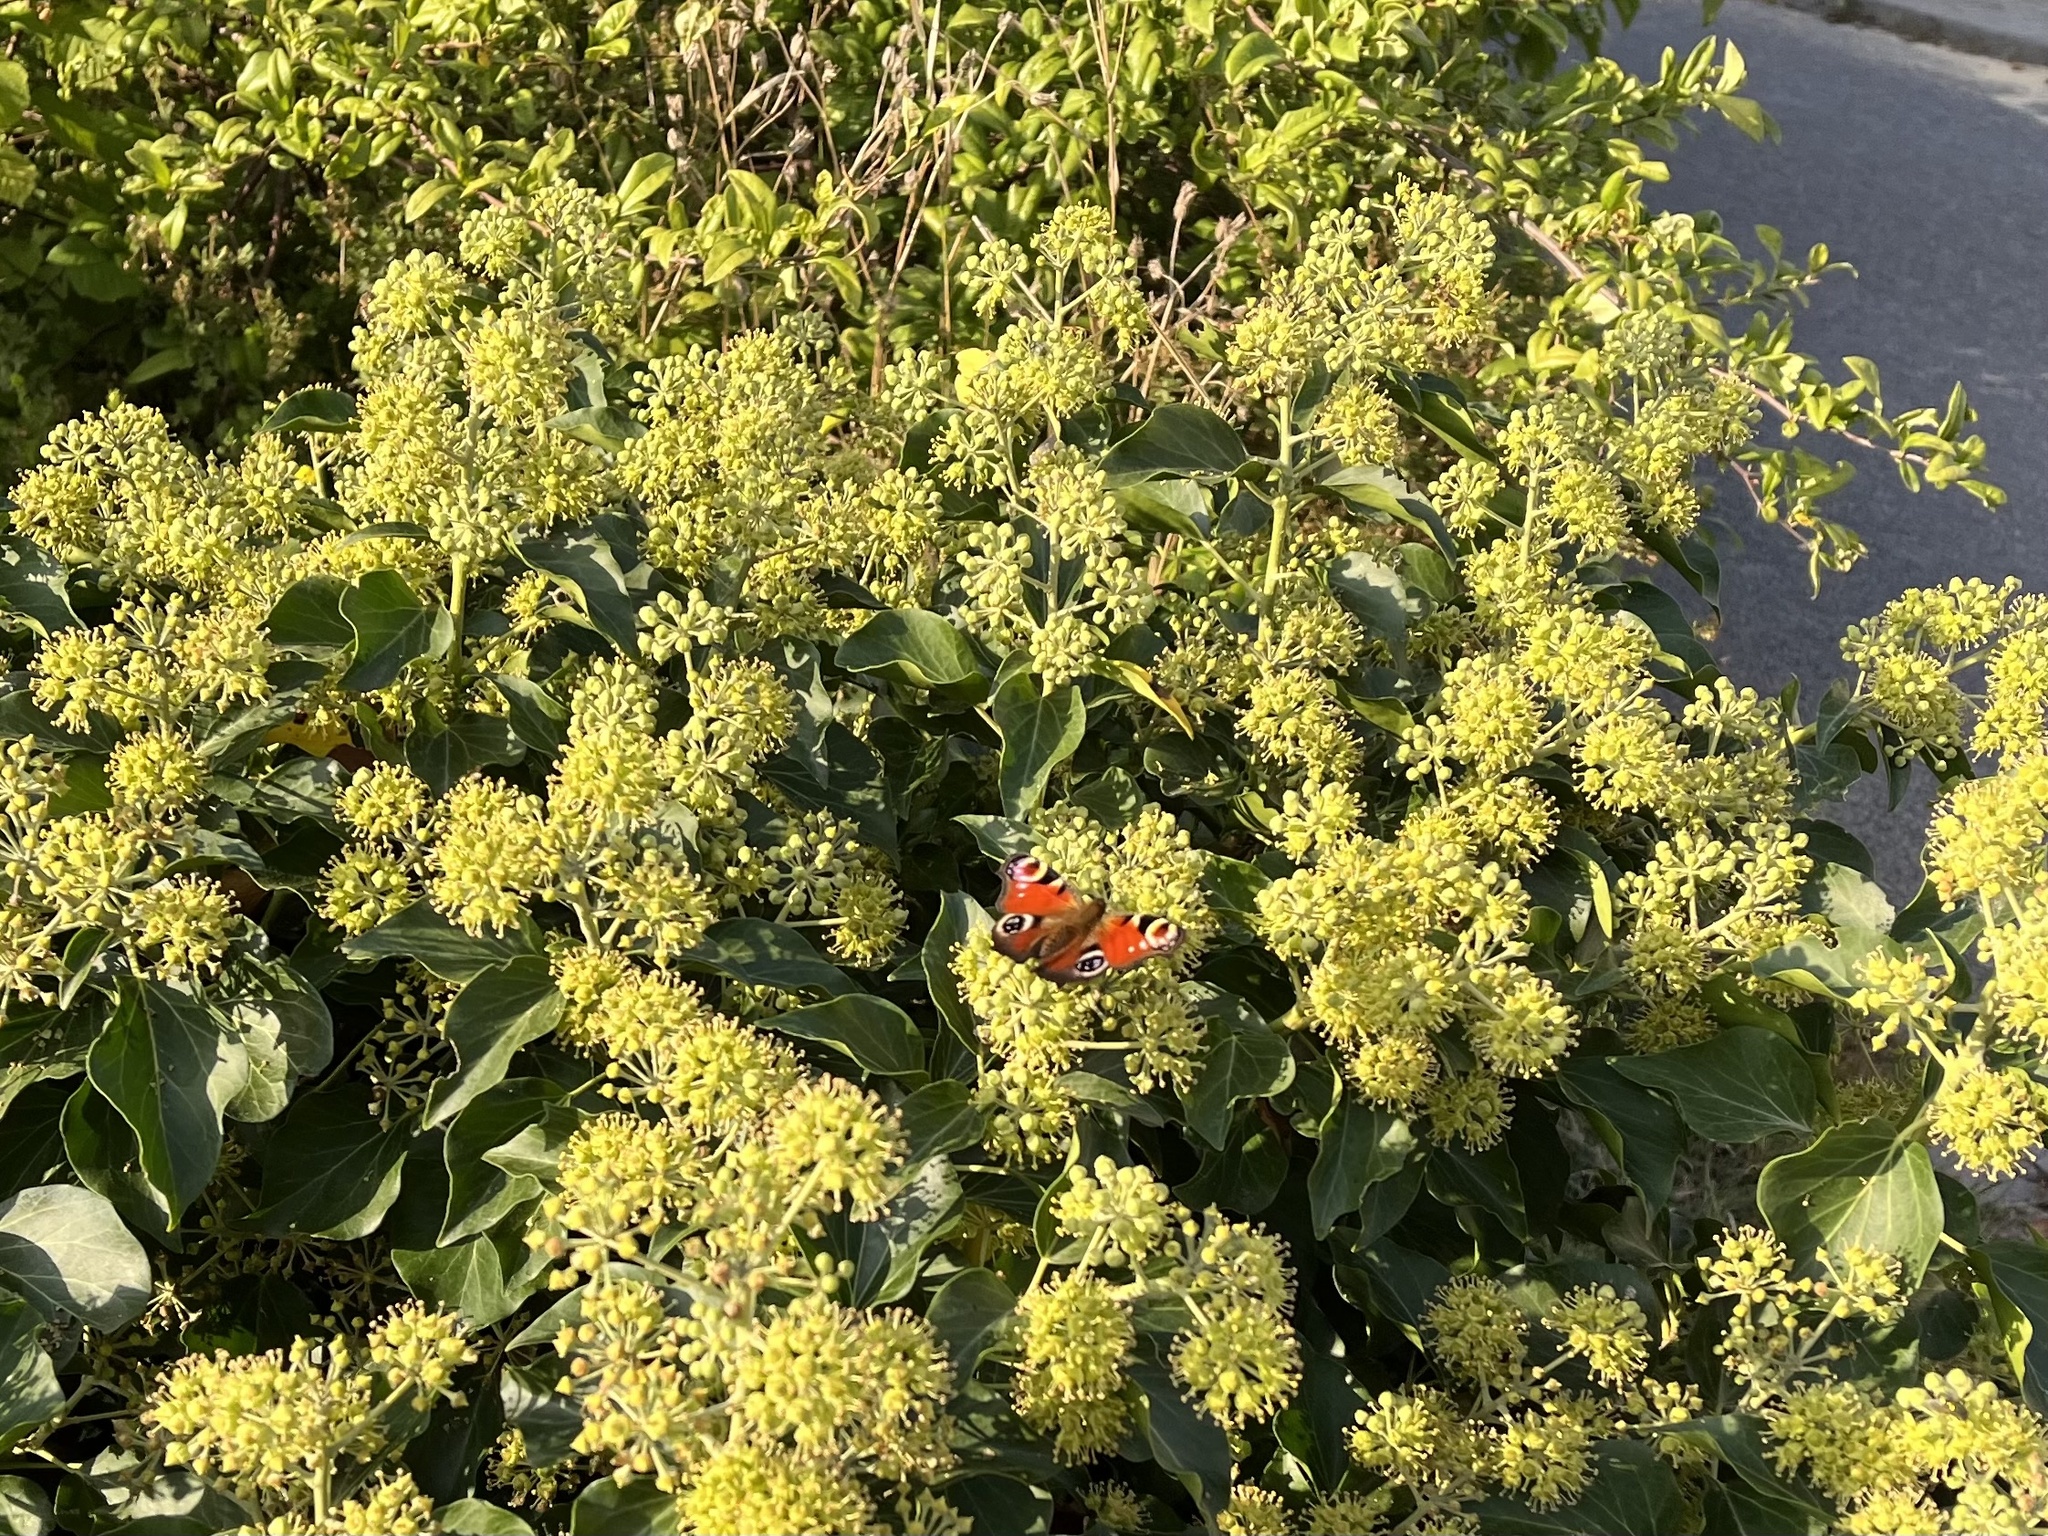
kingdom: Animalia
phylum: Arthropoda
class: Insecta
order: Lepidoptera
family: Nymphalidae
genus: Aglais
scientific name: Aglais io
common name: Peacock
